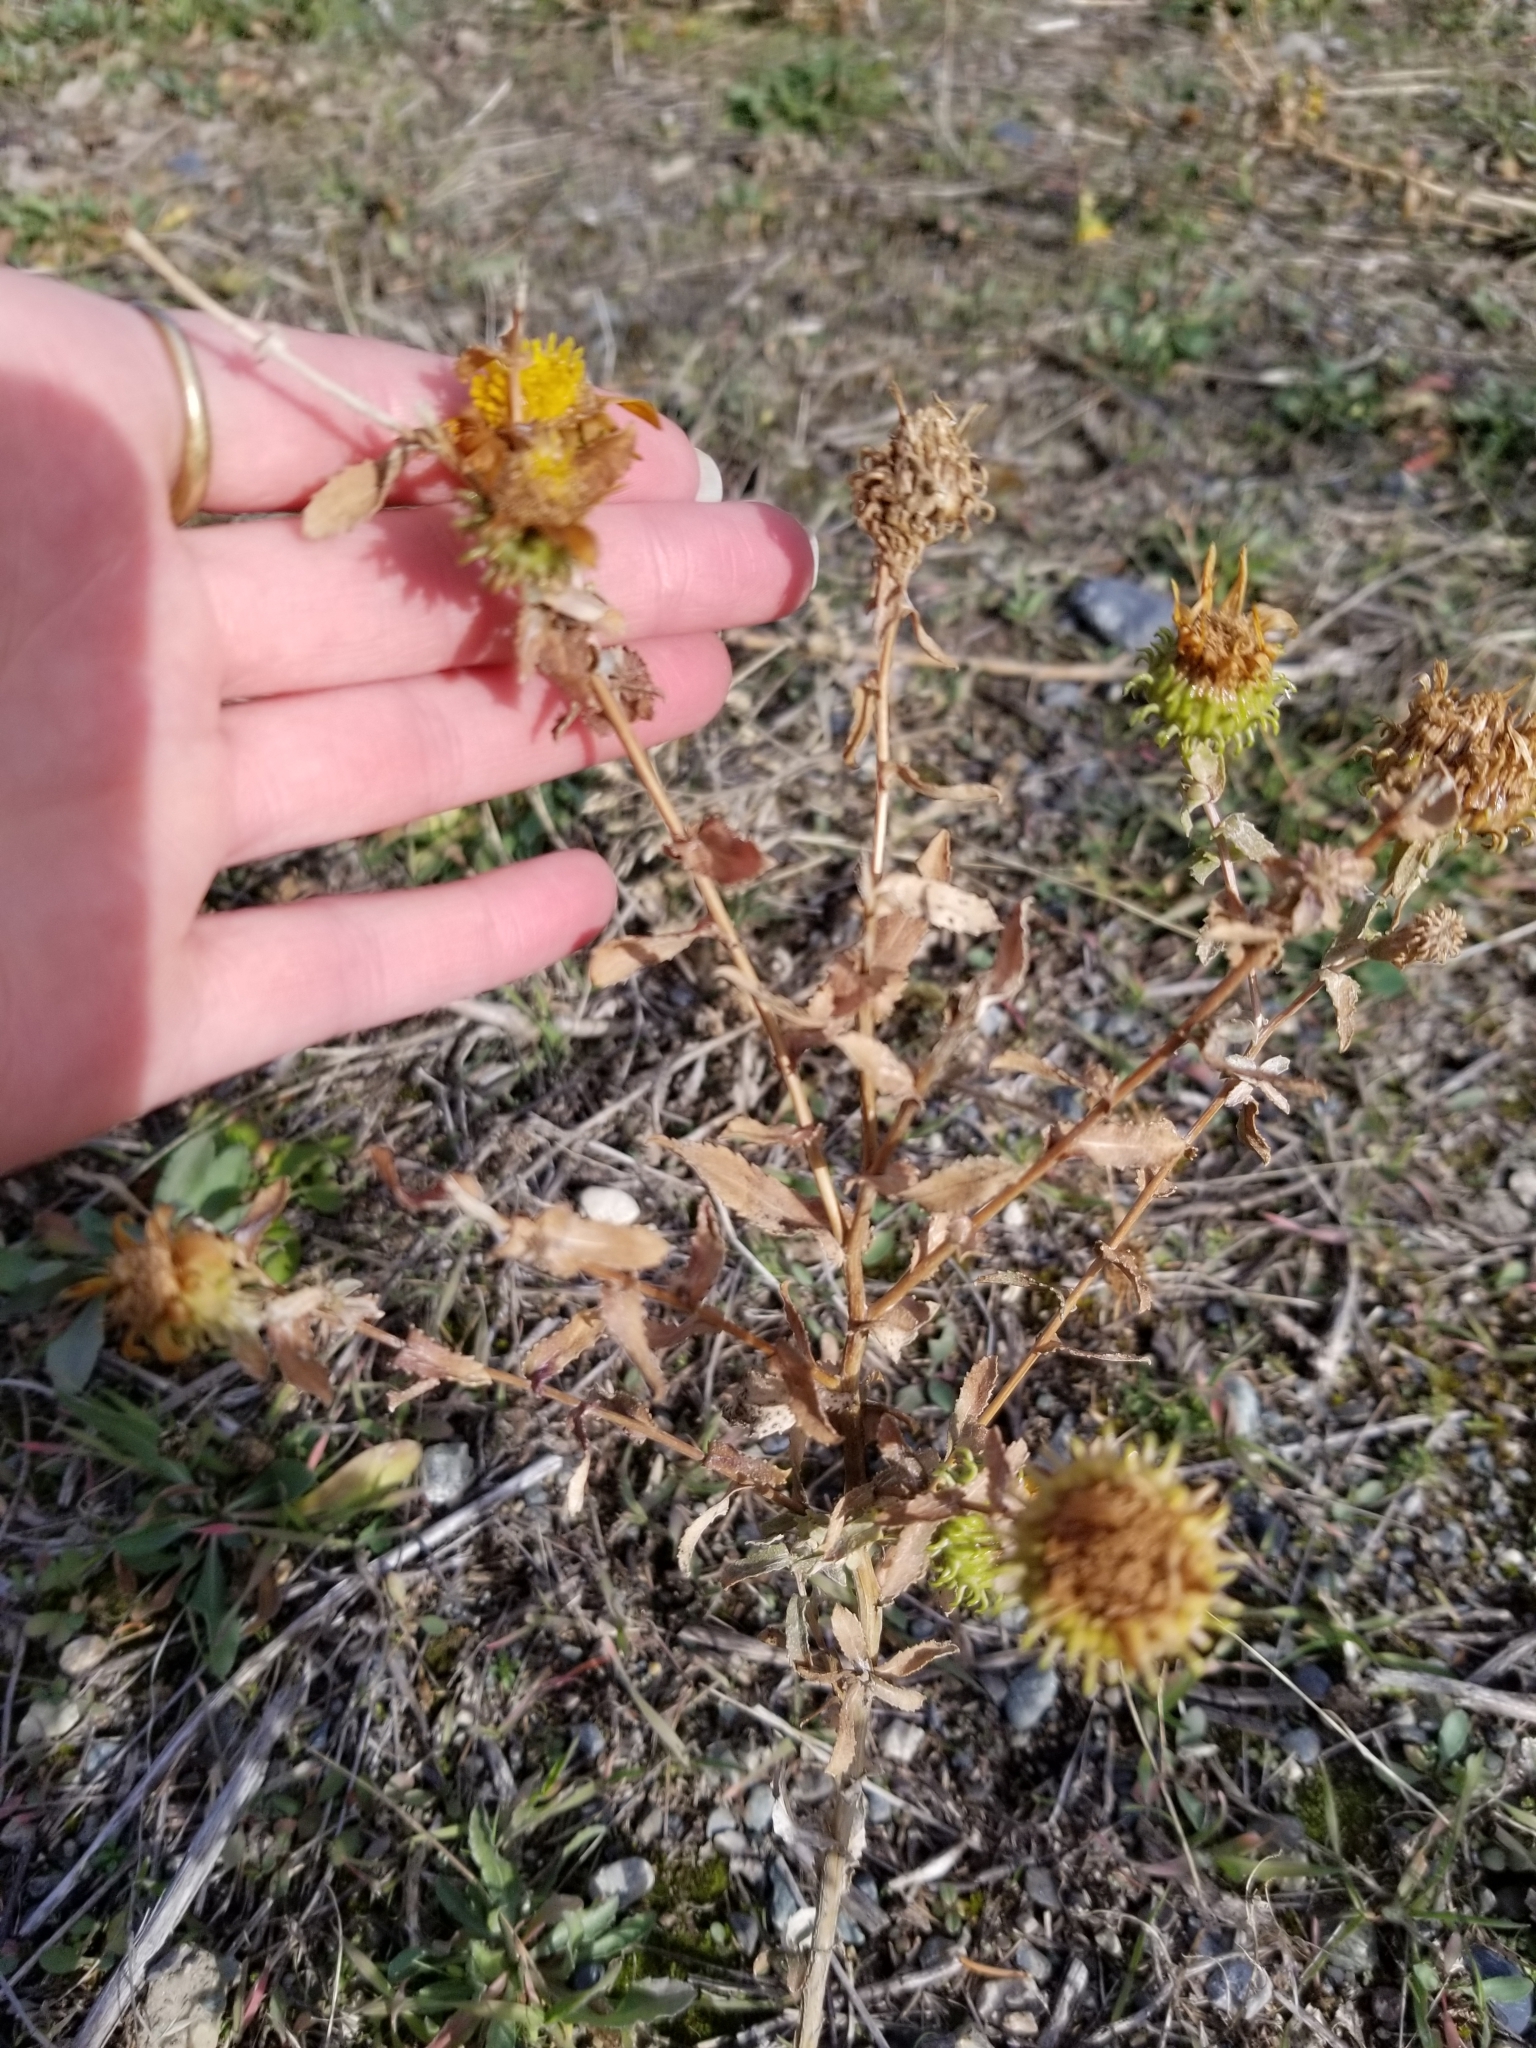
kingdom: Plantae
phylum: Tracheophyta
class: Magnoliopsida
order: Asterales
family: Asteraceae
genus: Grindelia
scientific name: Grindelia squarrosa
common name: Curly-cup gumweed
